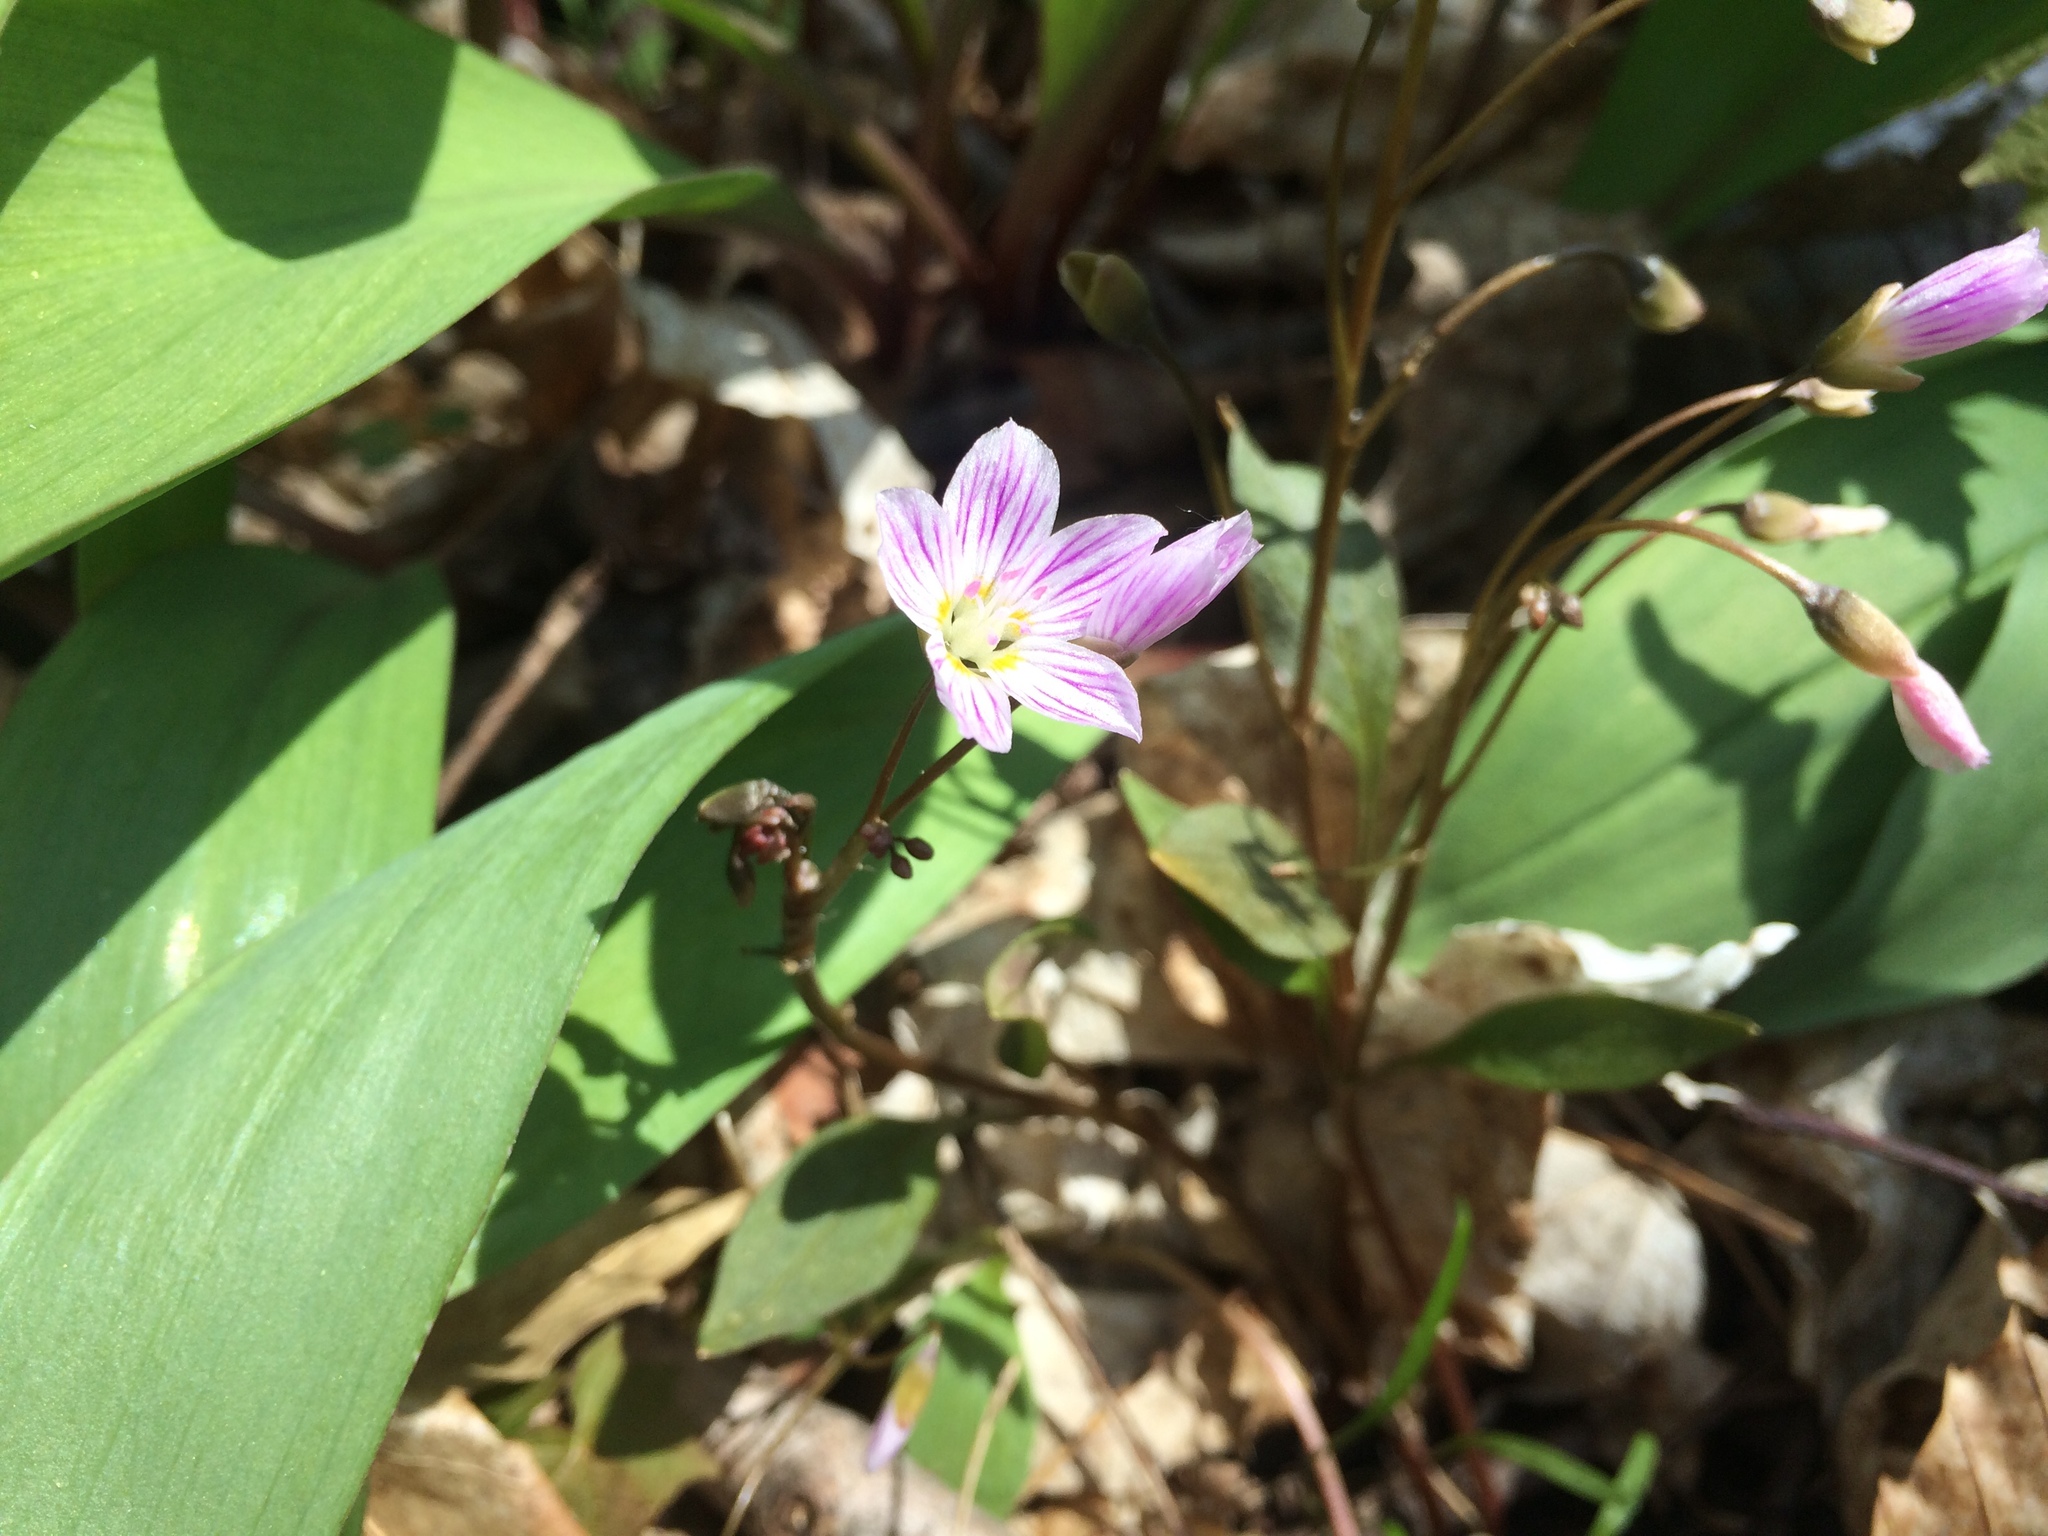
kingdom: Plantae
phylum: Tracheophyta
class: Magnoliopsida
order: Caryophyllales
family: Montiaceae
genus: Claytonia
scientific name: Claytonia caroliniana
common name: Carolina spring beauty
